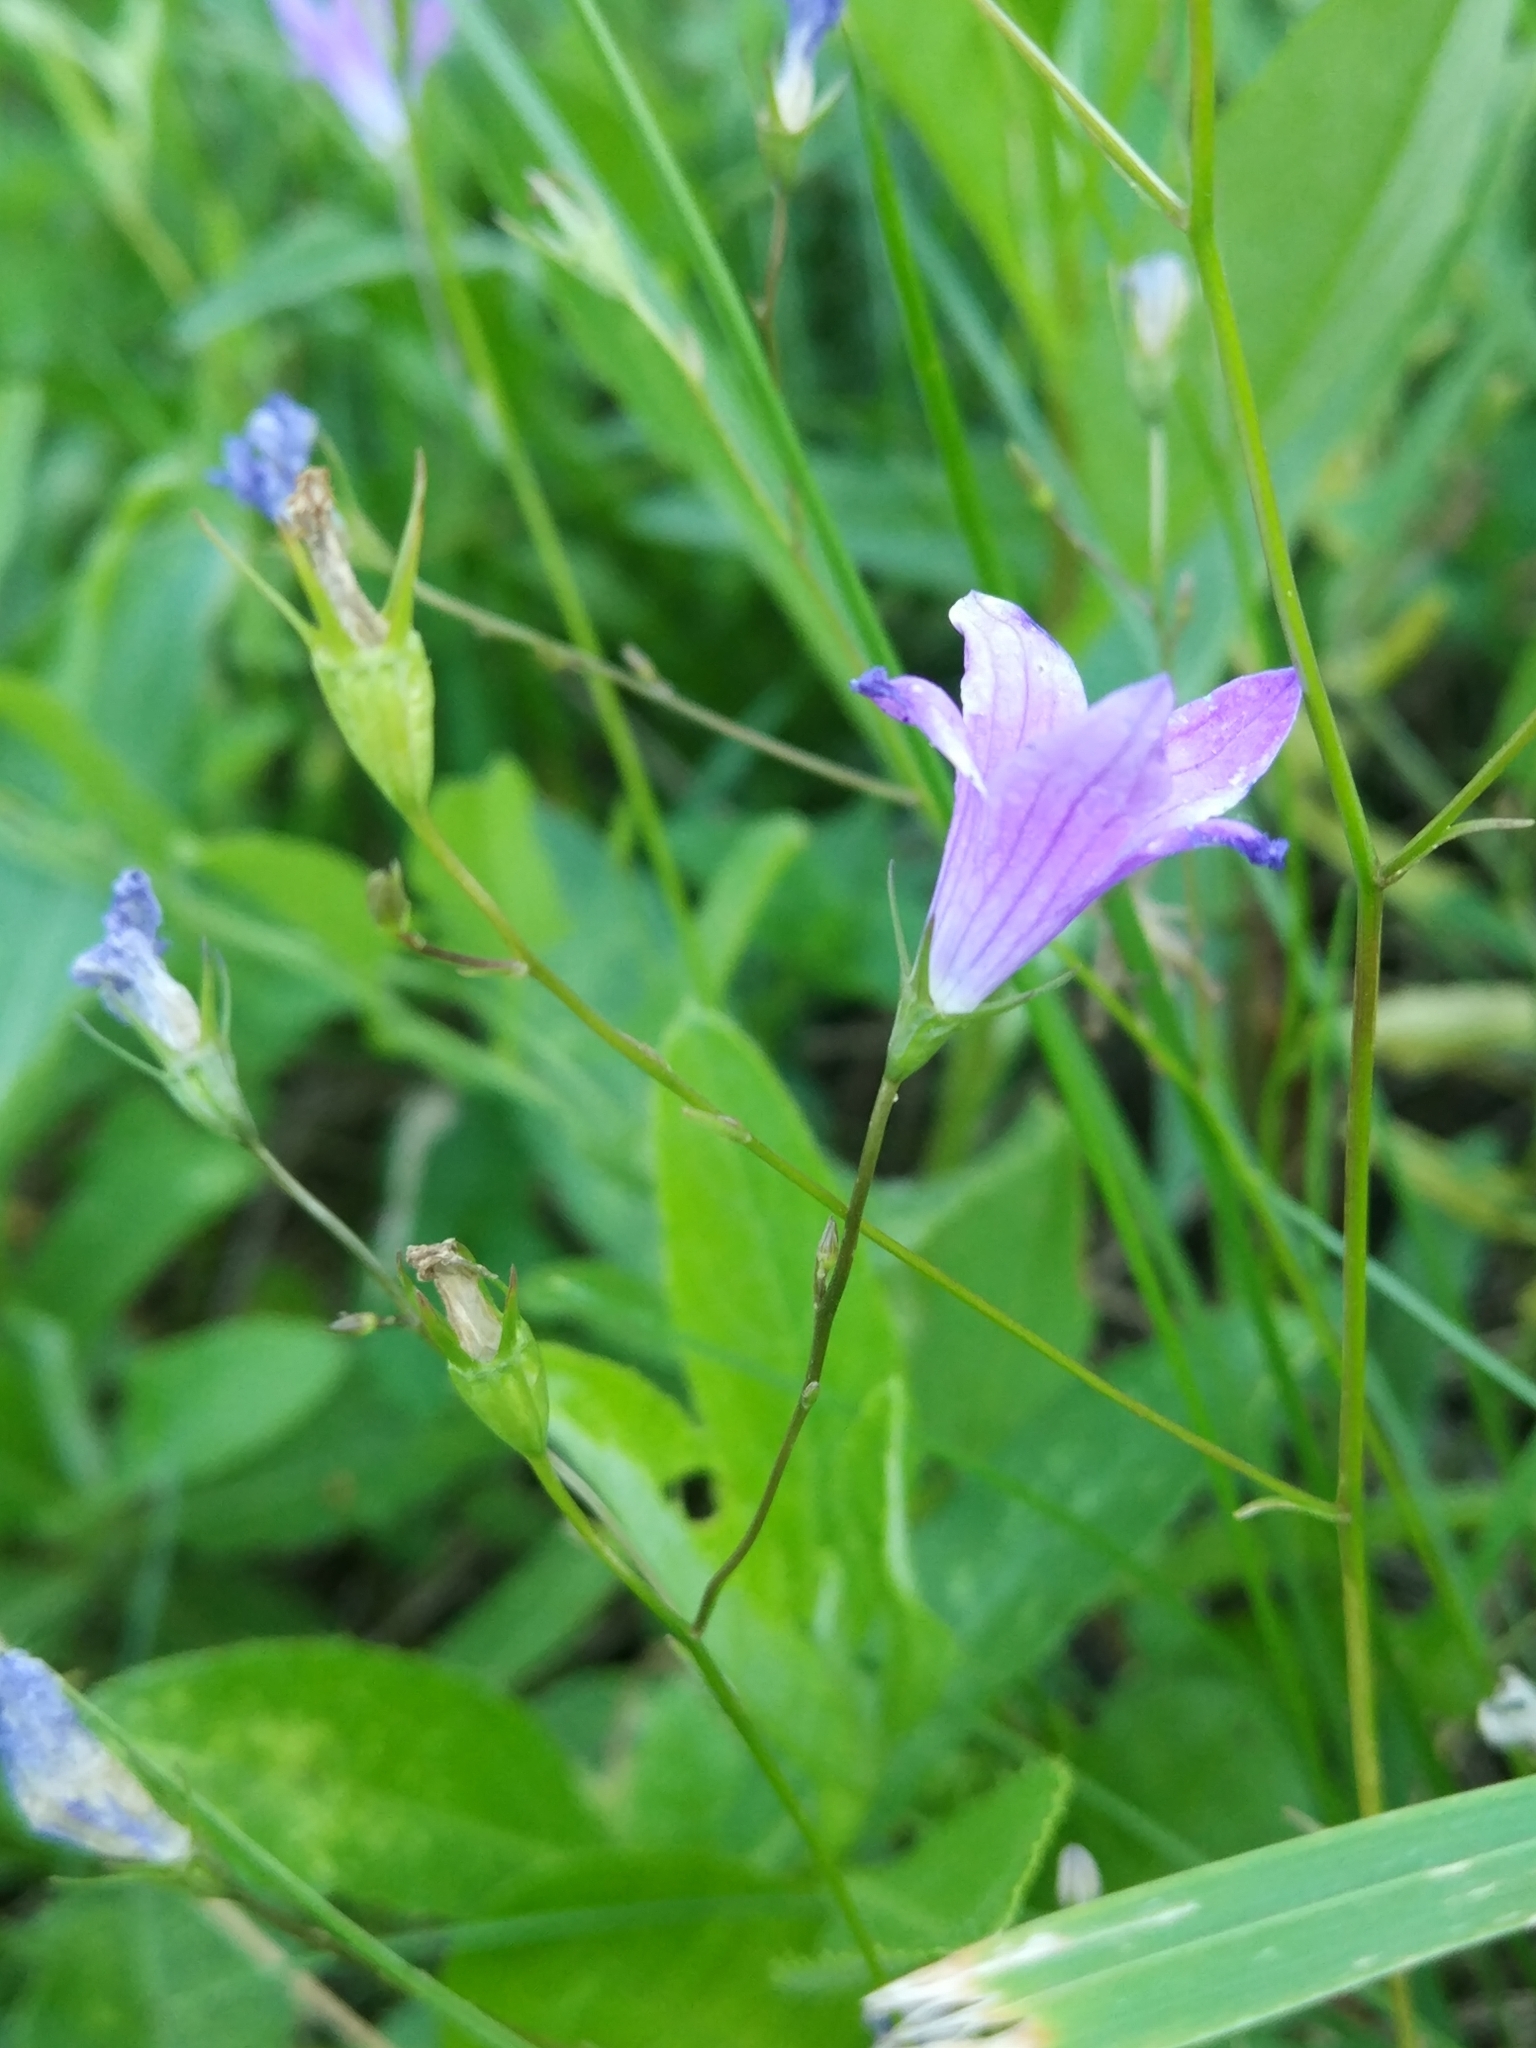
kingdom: Plantae
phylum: Tracheophyta
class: Magnoliopsida
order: Asterales
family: Campanulaceae
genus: Campanula
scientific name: Campanula patula
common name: Spreading bellflower
